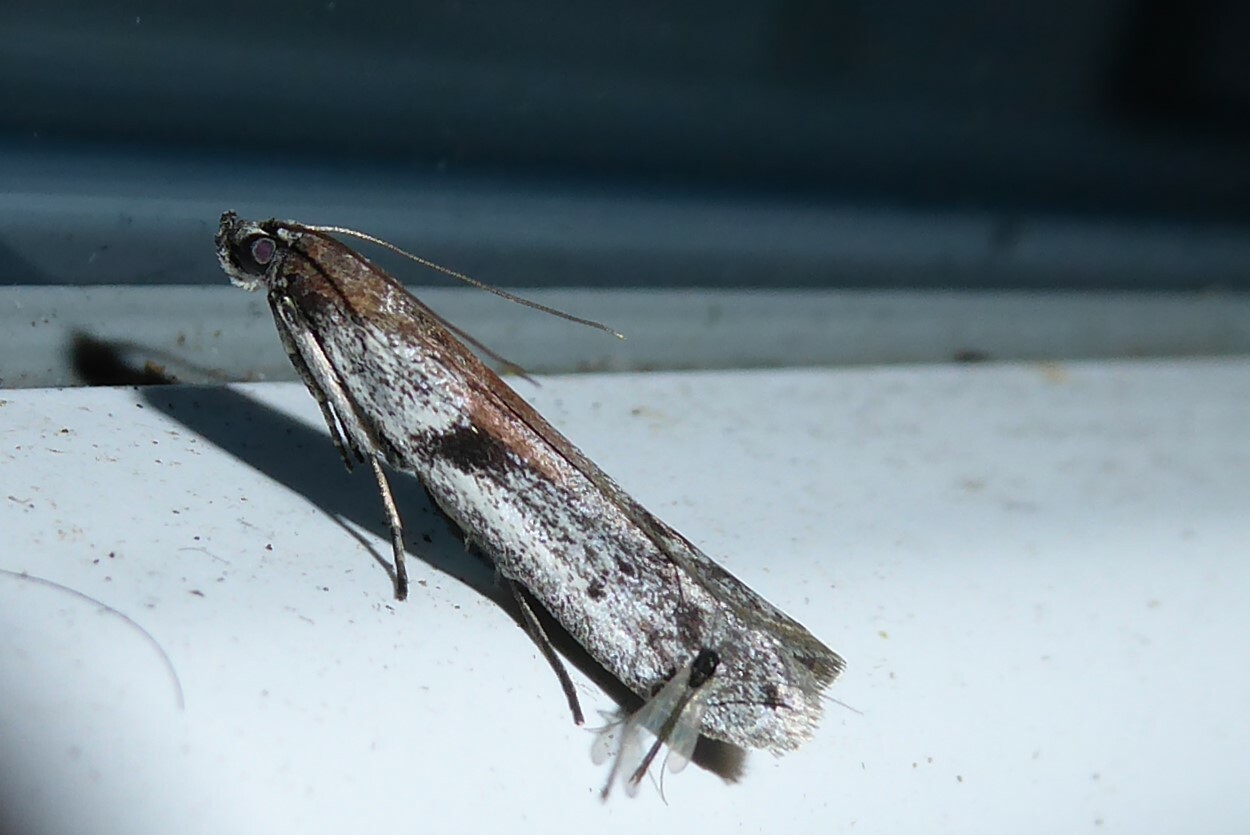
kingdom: Animalia
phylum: Arthropoda
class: Insecta
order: Lepidoptera
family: Pyralidae
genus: Patagoniodes
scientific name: Patagoniodes farinaria
